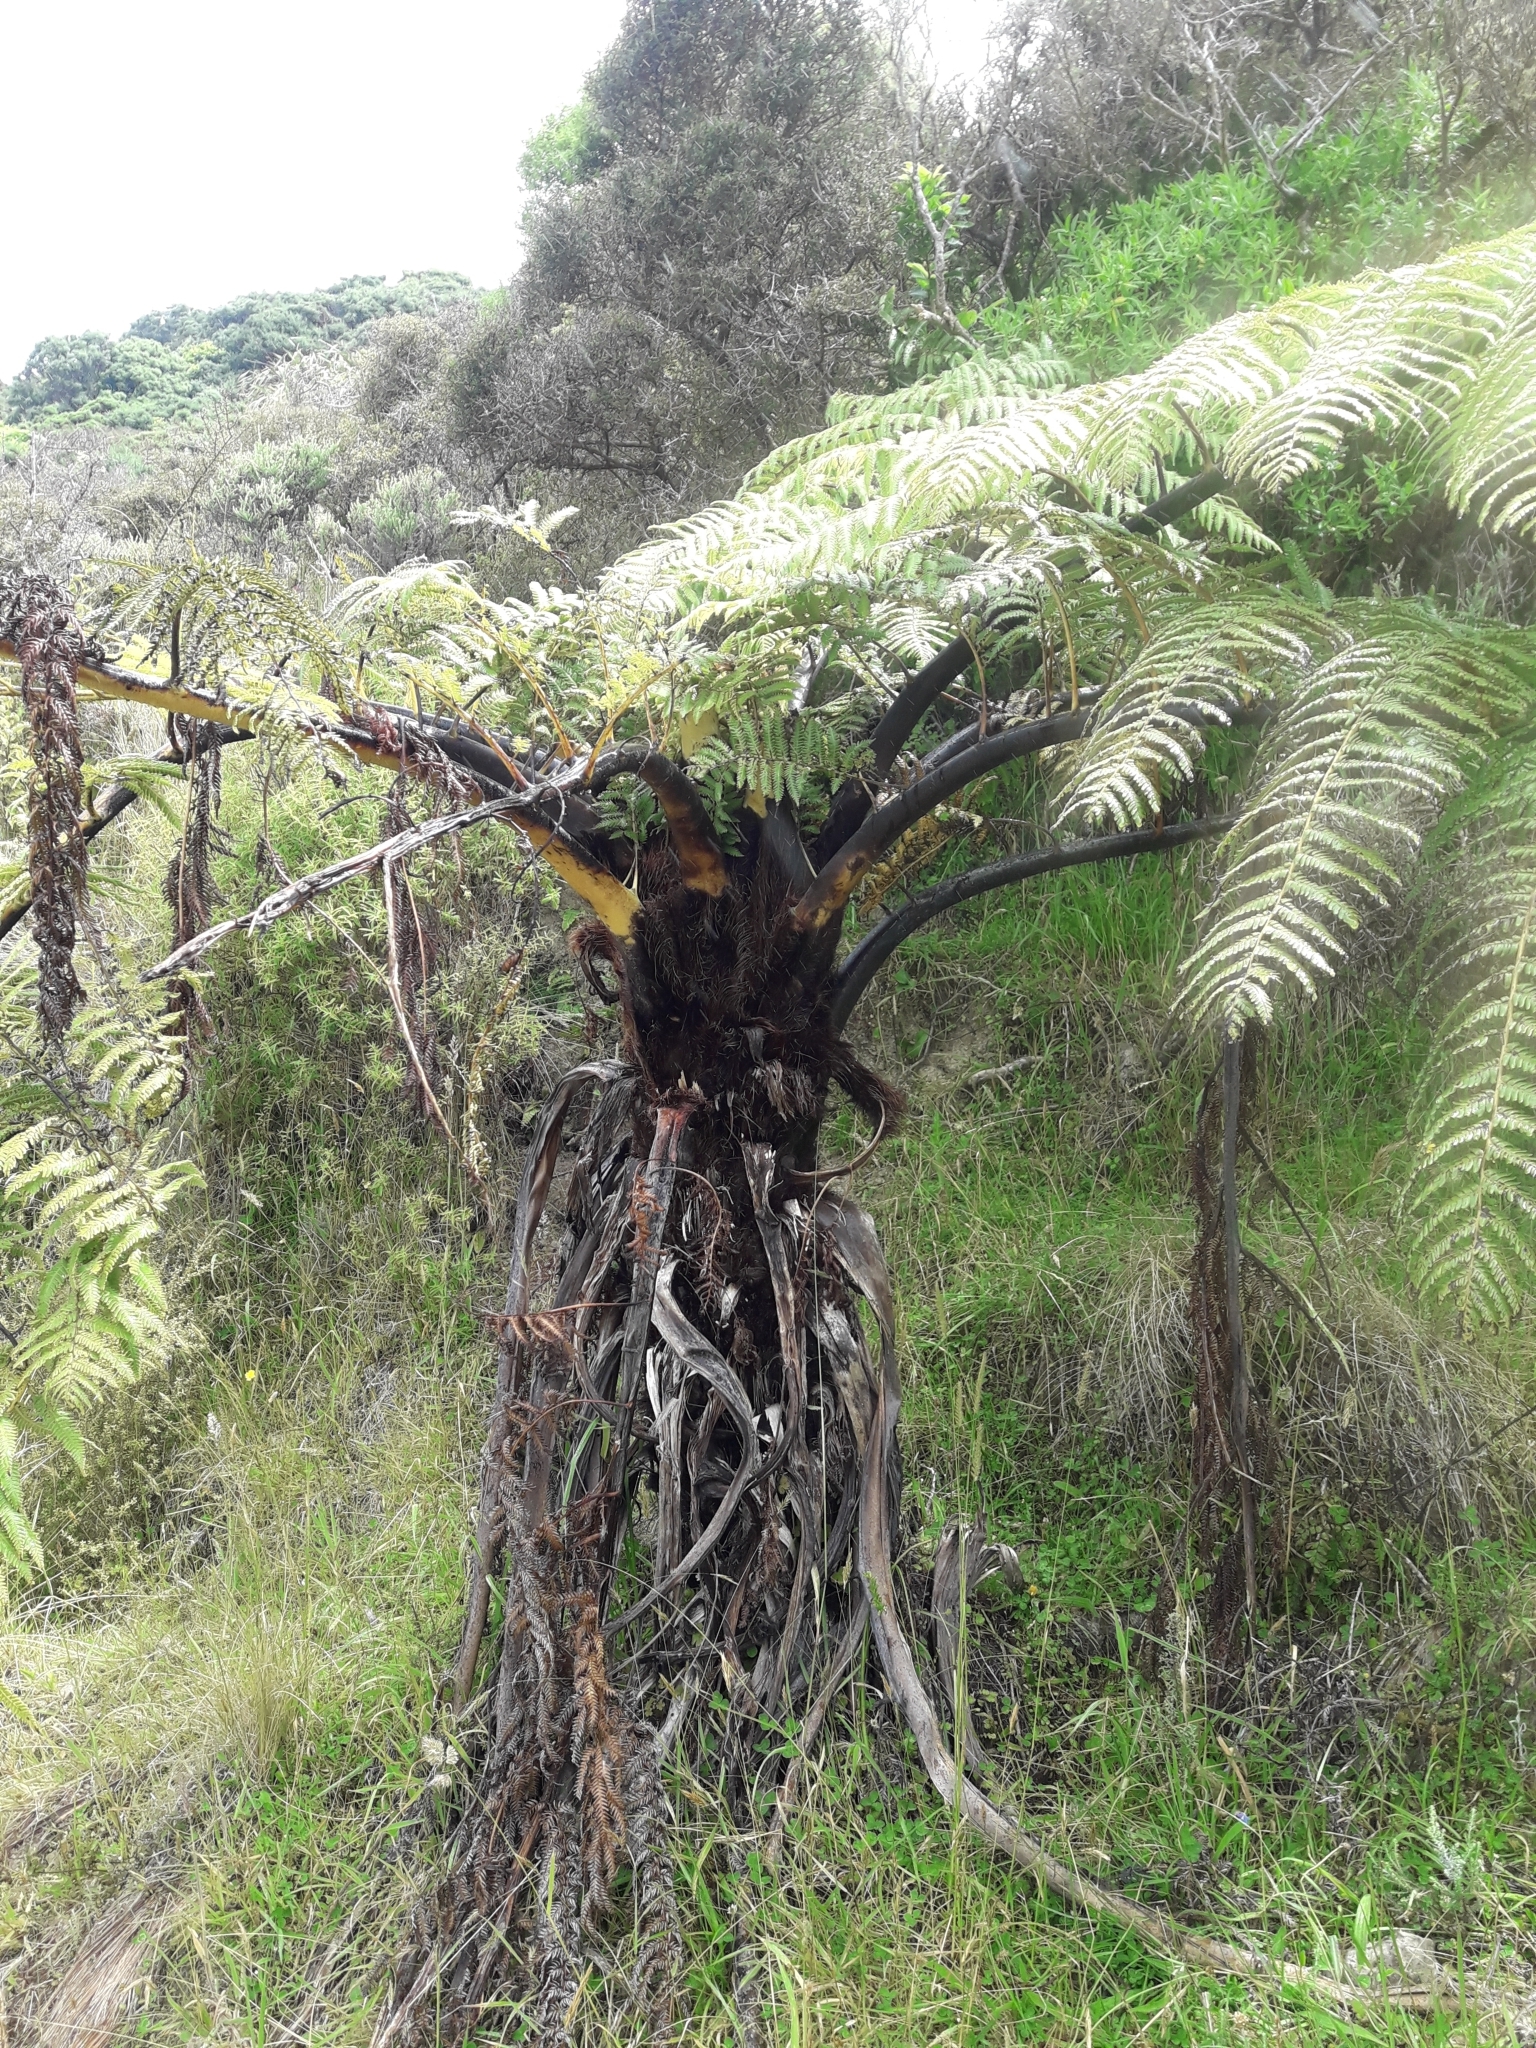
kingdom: Plantae
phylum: Tracheophyta
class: Polypodiopsida
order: Cyatheales
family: Cyatheaceae
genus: Sphaeropteris
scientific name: Sphaeropteris medullaris
